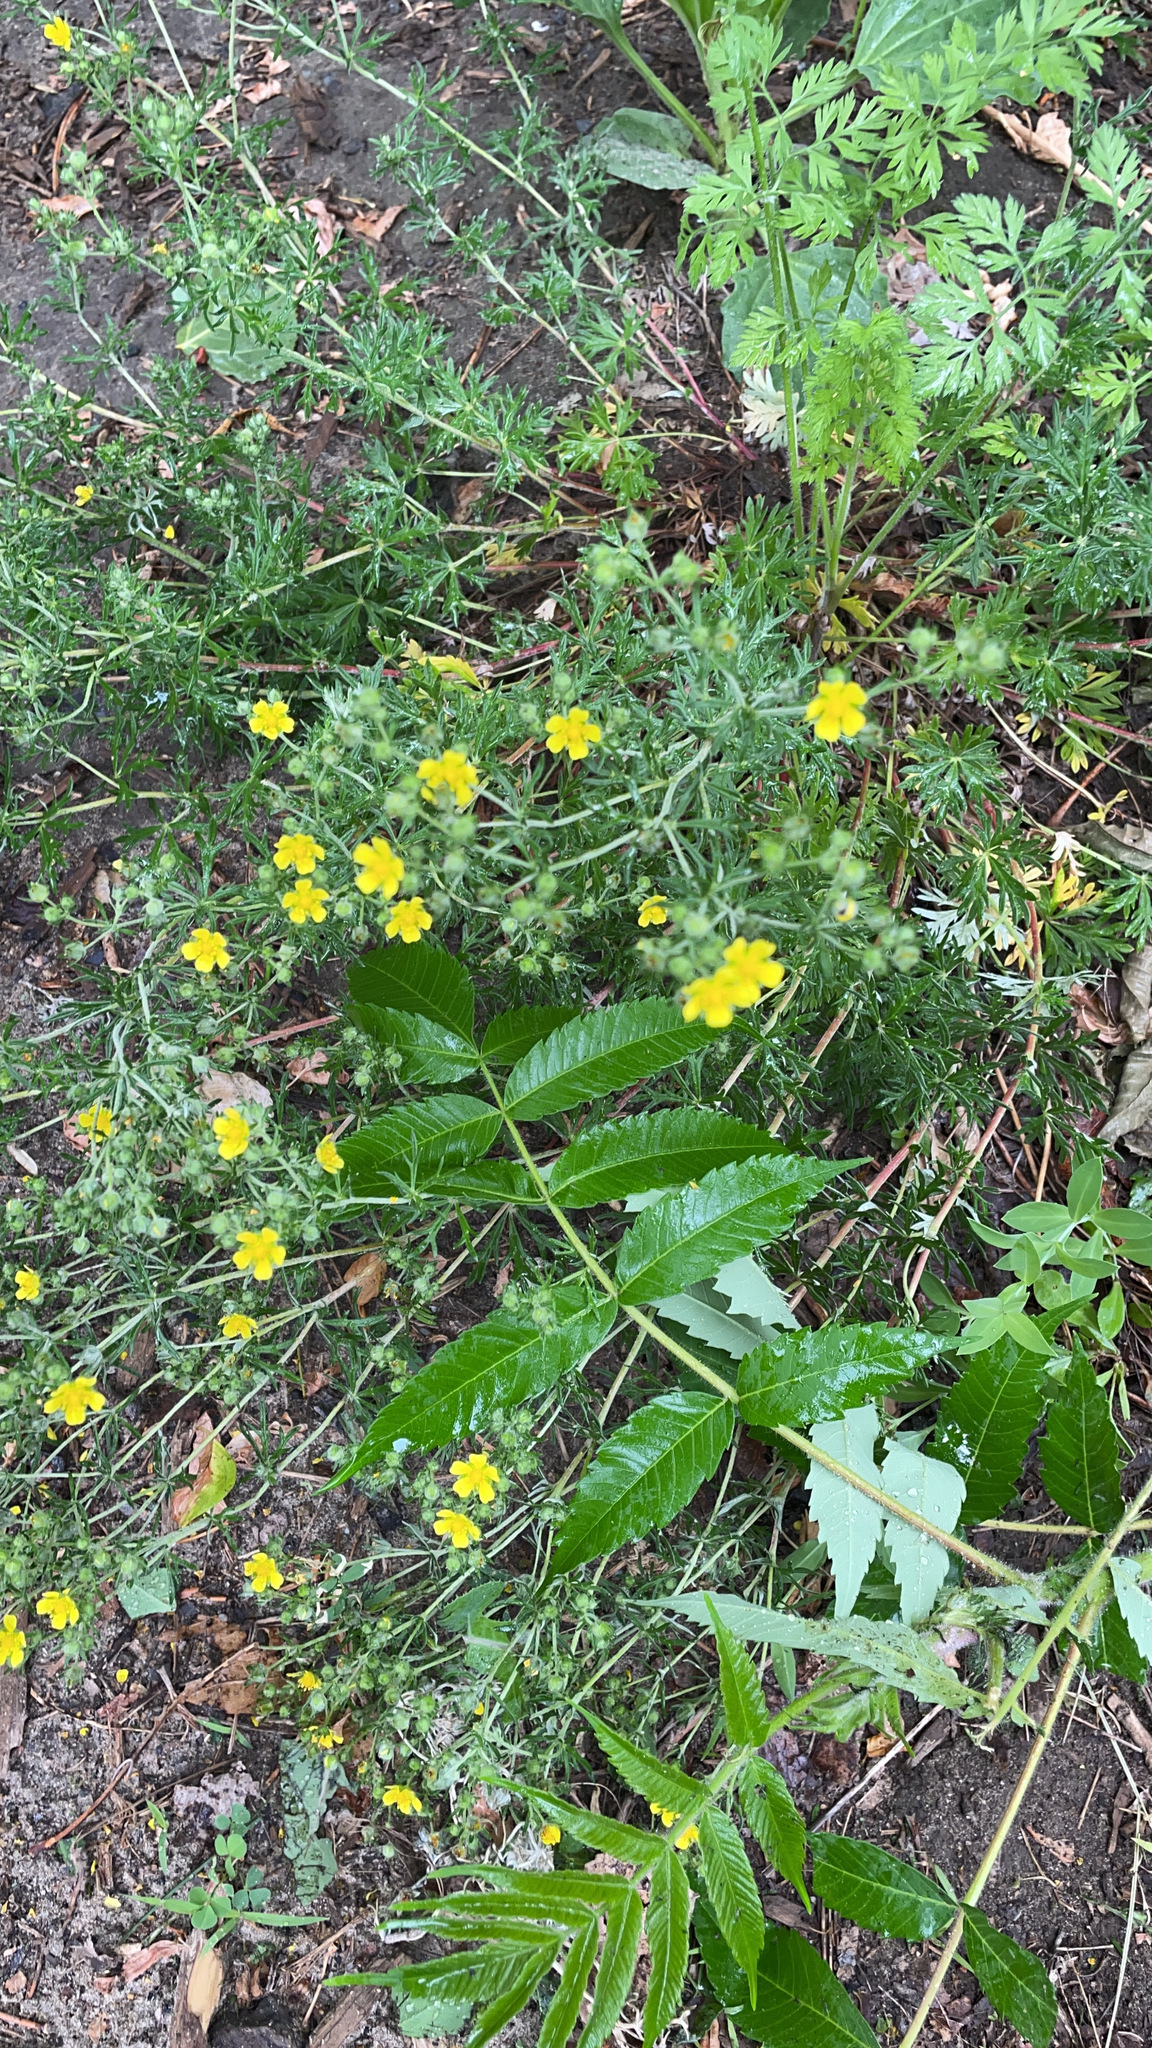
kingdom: Plantae
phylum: Tracheophyta
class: Magnoliopsida
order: Rosales
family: Rosaceae
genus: Potentilla
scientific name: Potentilla argentea
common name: Hoary cinquefoil
